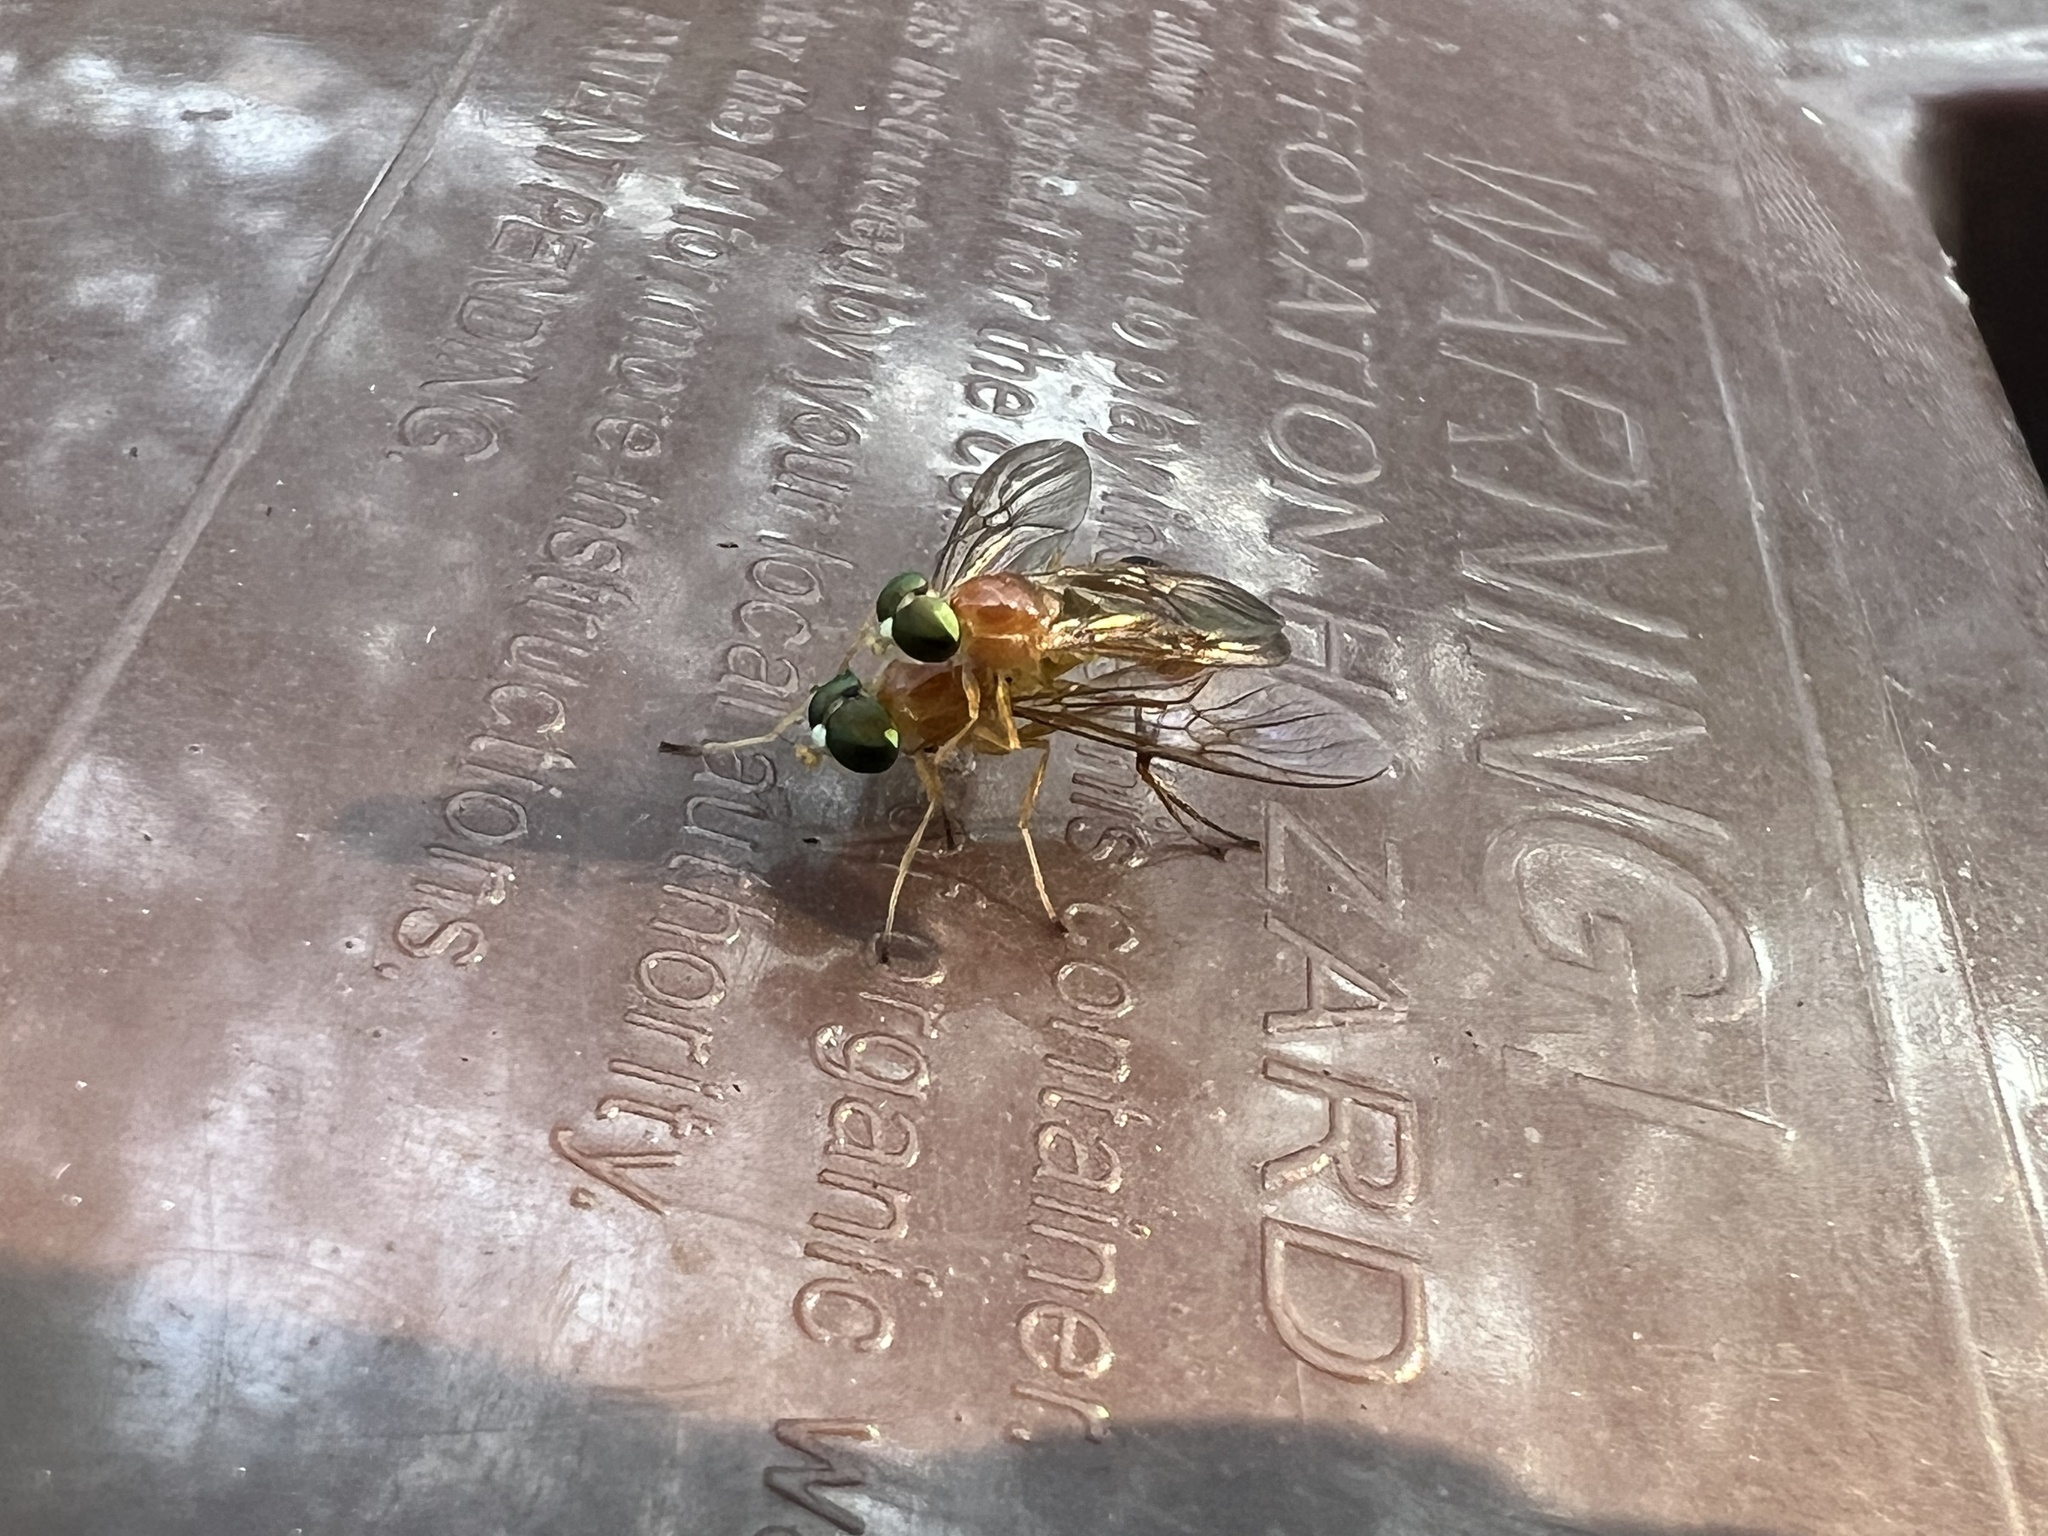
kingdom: Animalia
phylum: Arthropoda
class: Insecta
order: Diptera
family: Stratiomyidae
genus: Ptecticus
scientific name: Ptecticus trivittatus
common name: Compost fly
